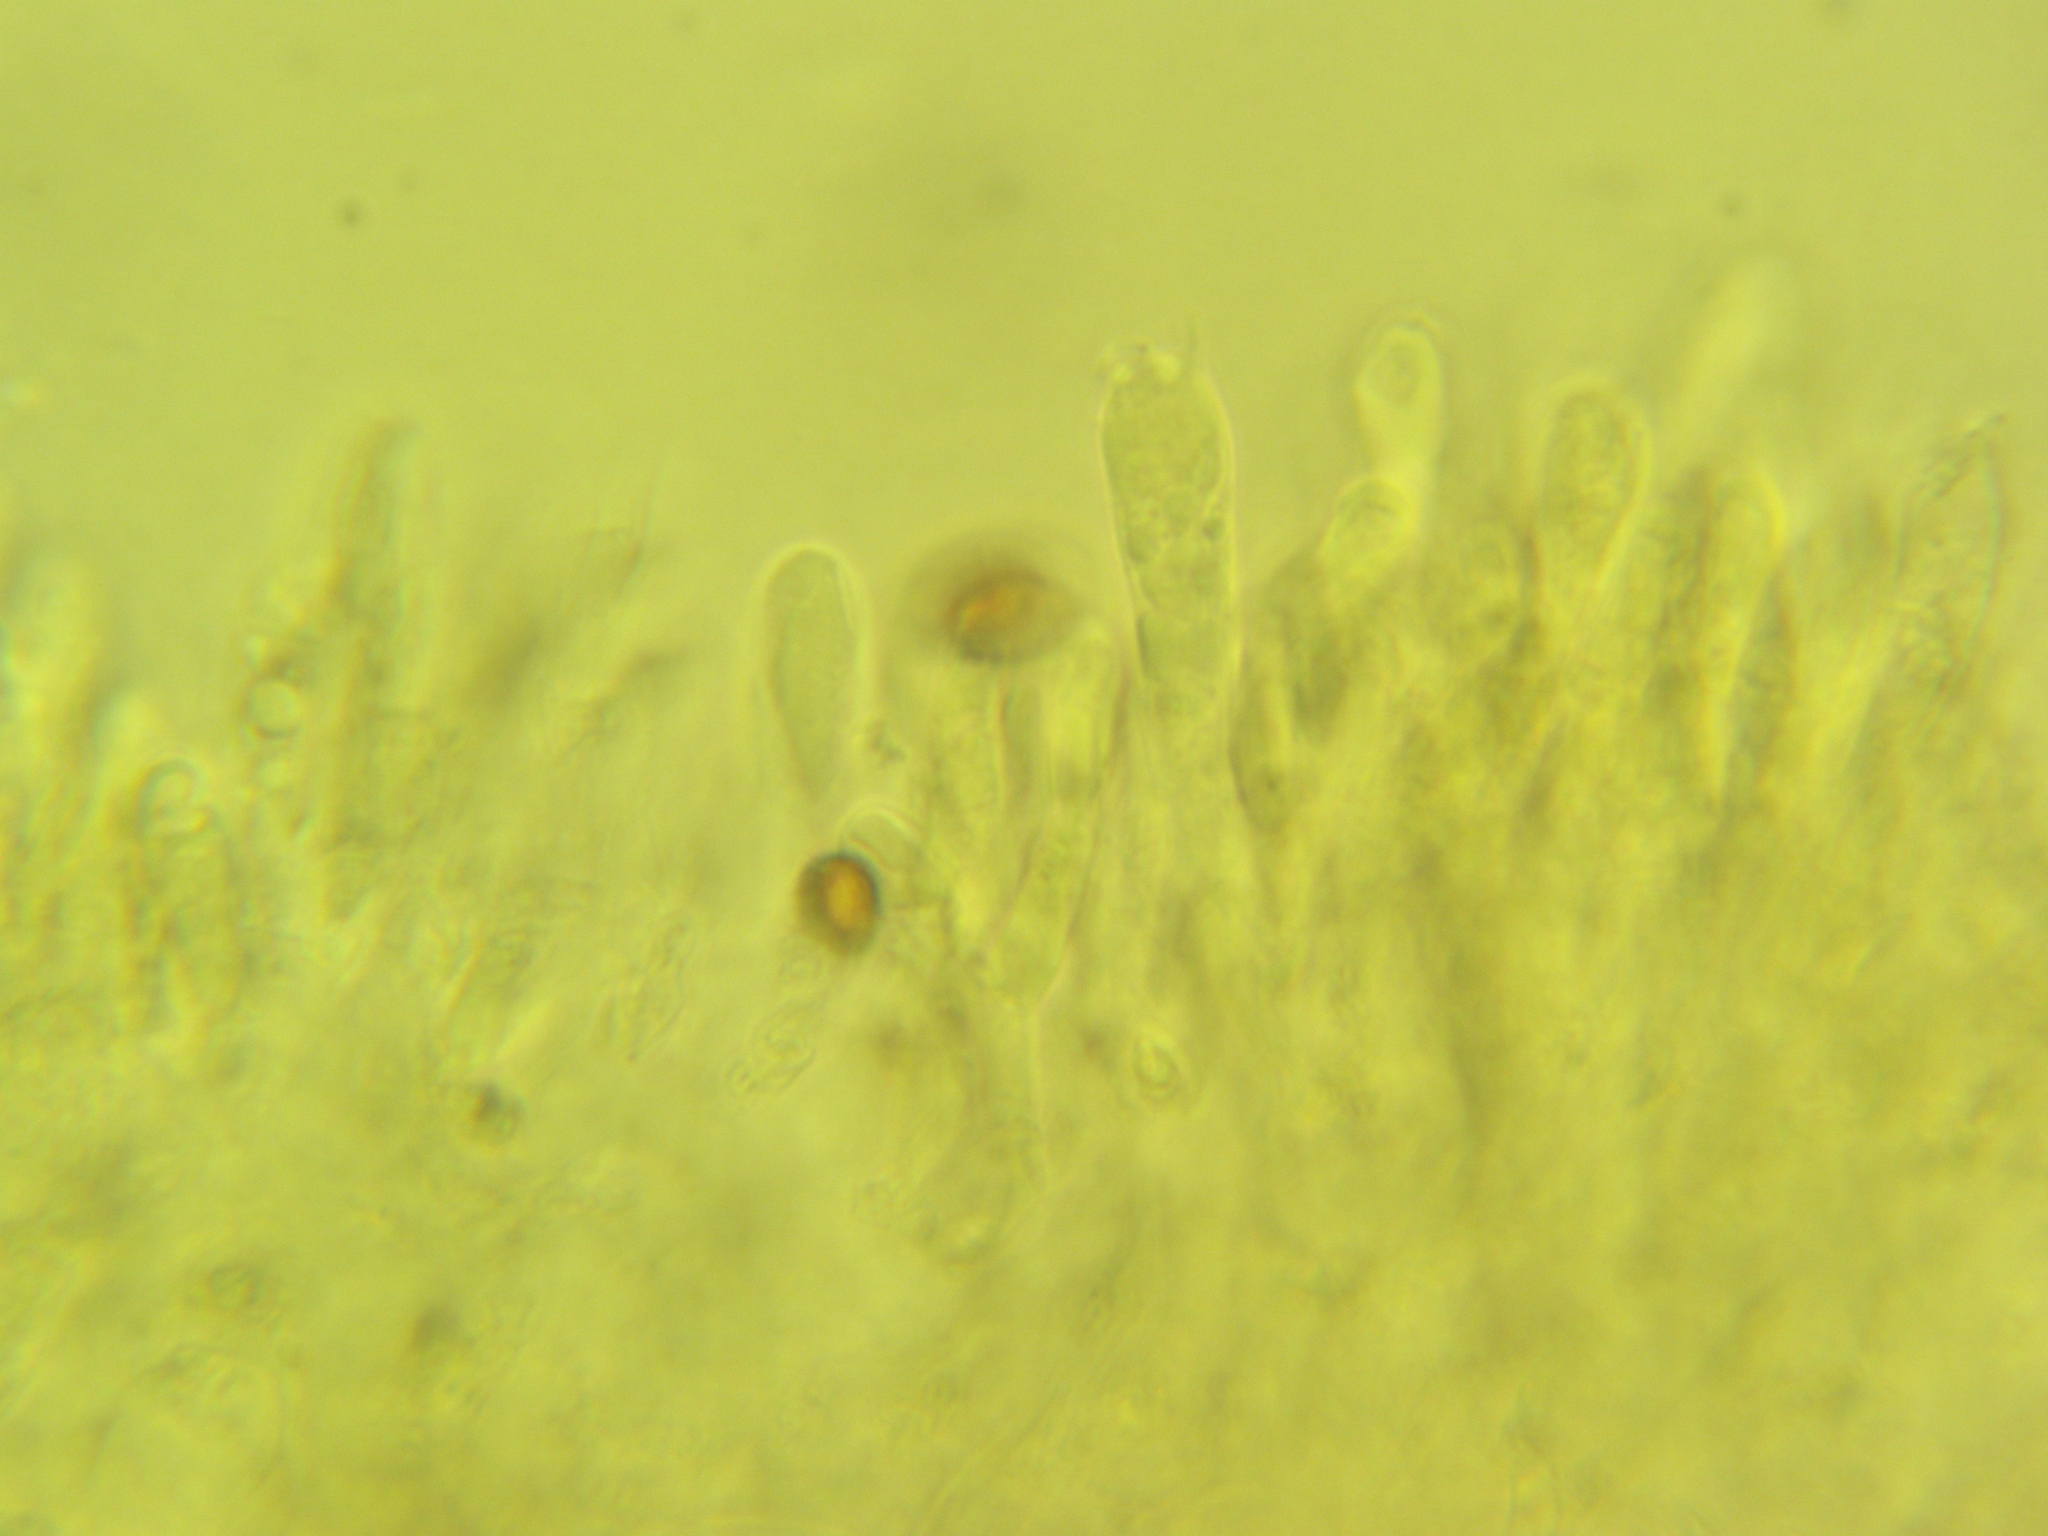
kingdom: Fungi
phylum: Basidiomycota
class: Agaricomycetes
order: Agaricales
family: Strophariaceae
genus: Pholiota
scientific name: Pholiota limonella
